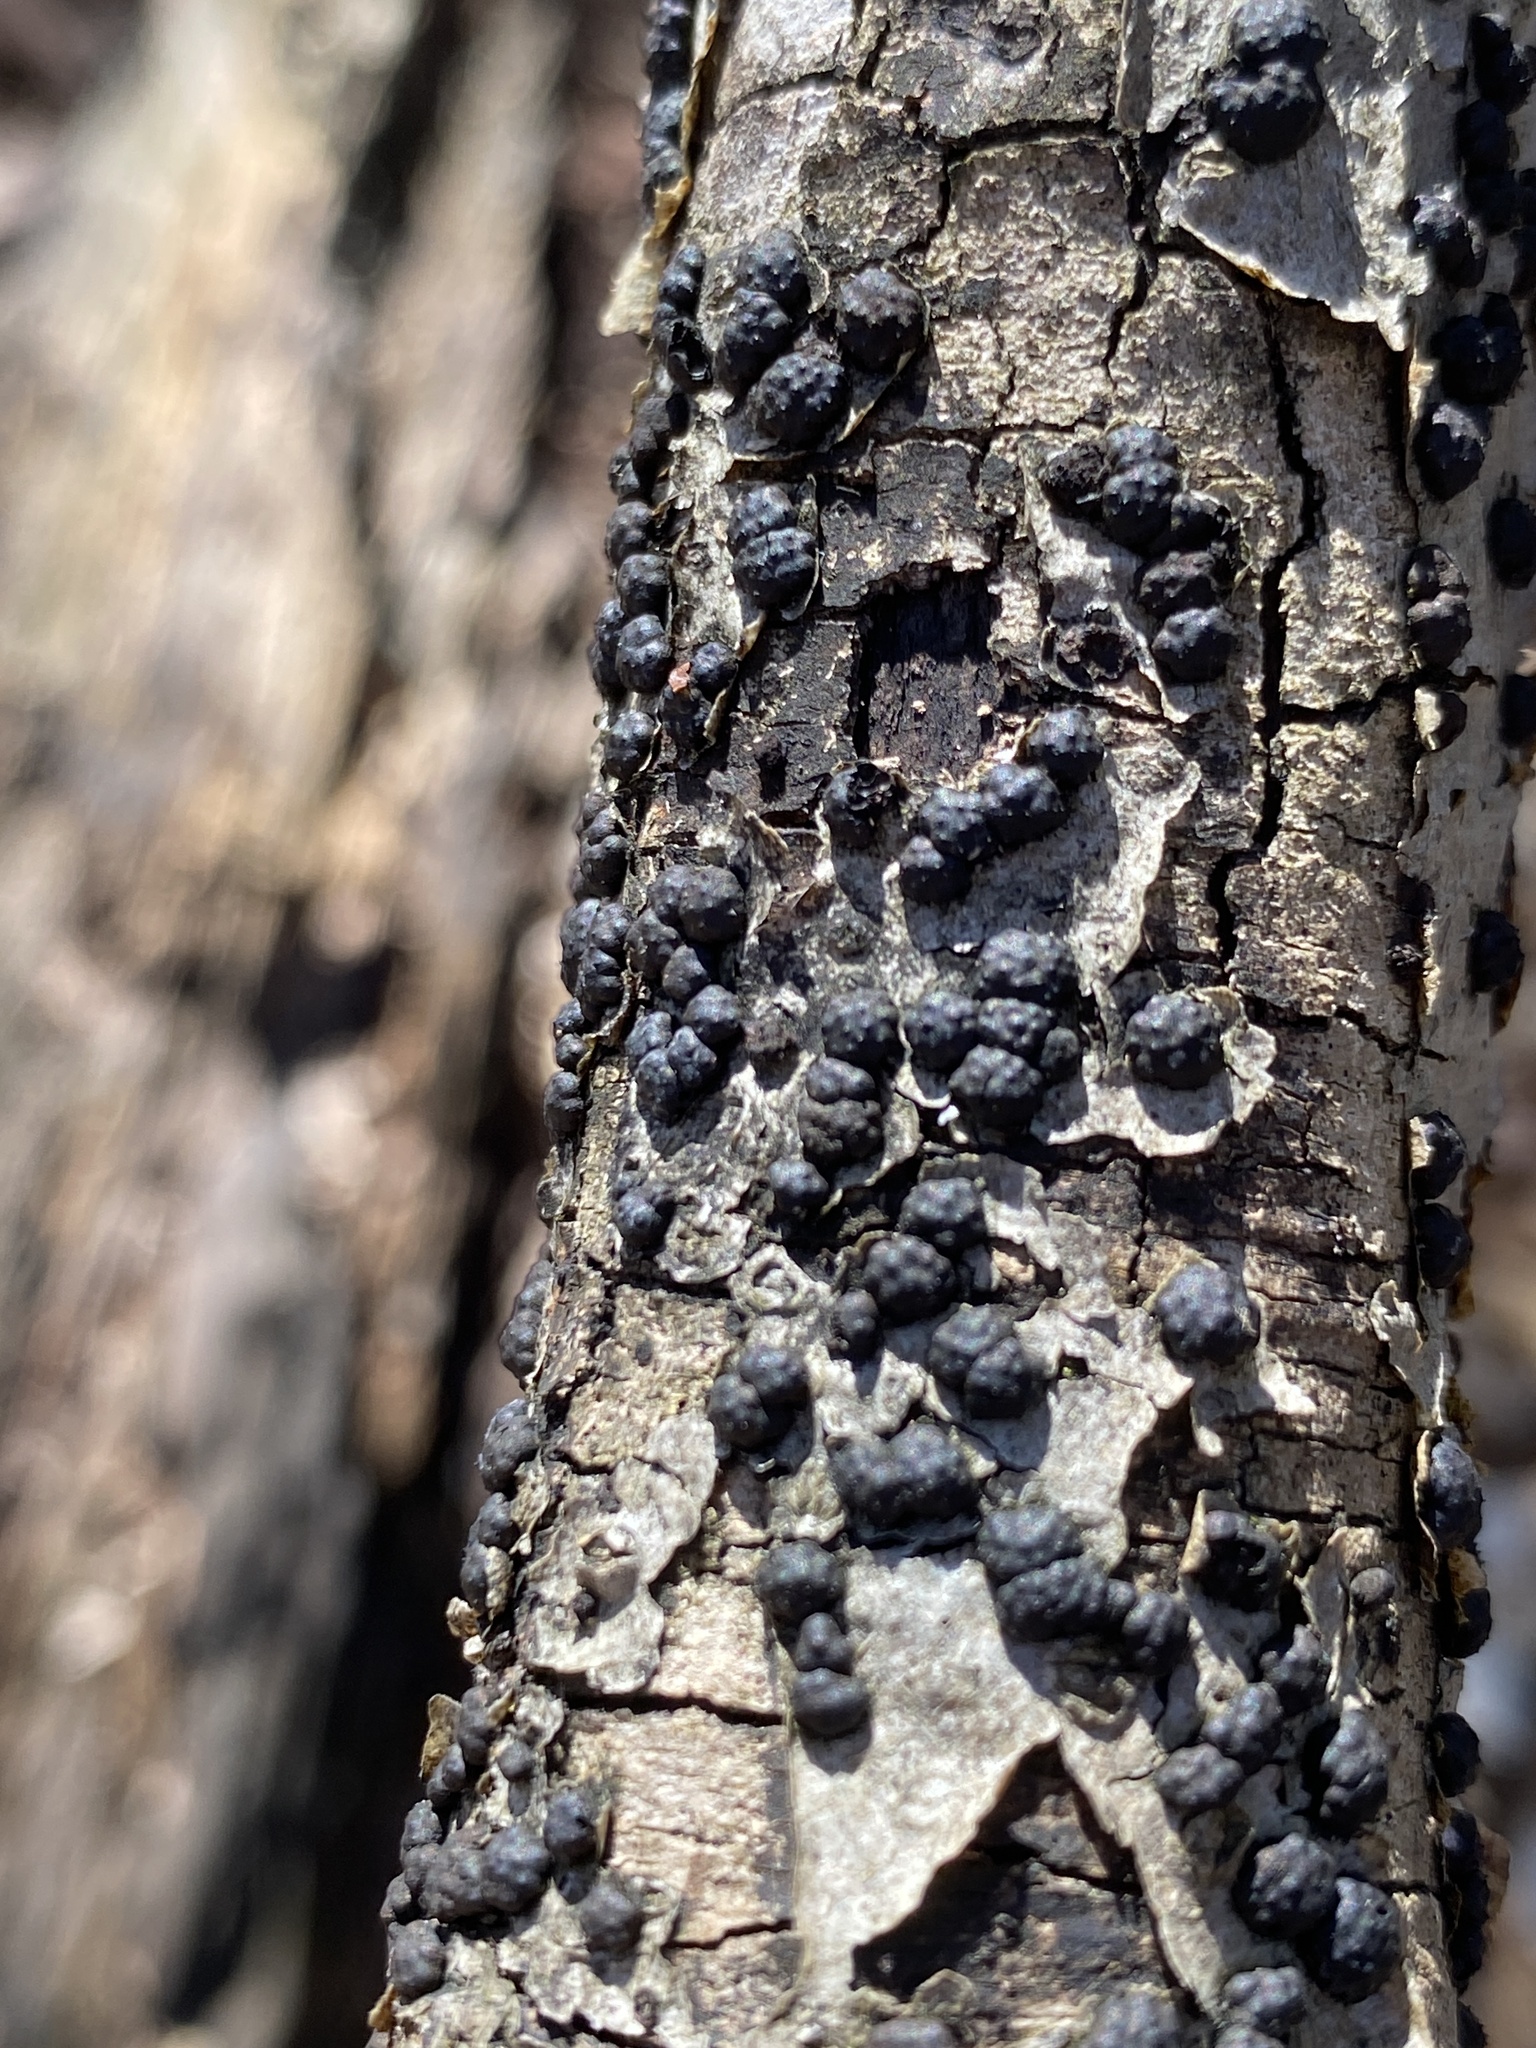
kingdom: Fungi
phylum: Ascomycota
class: Sordariomycetes
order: Xylariales
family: Hypoxylaceae
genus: Jackrogersella
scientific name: Jackrogersella cohaerens
